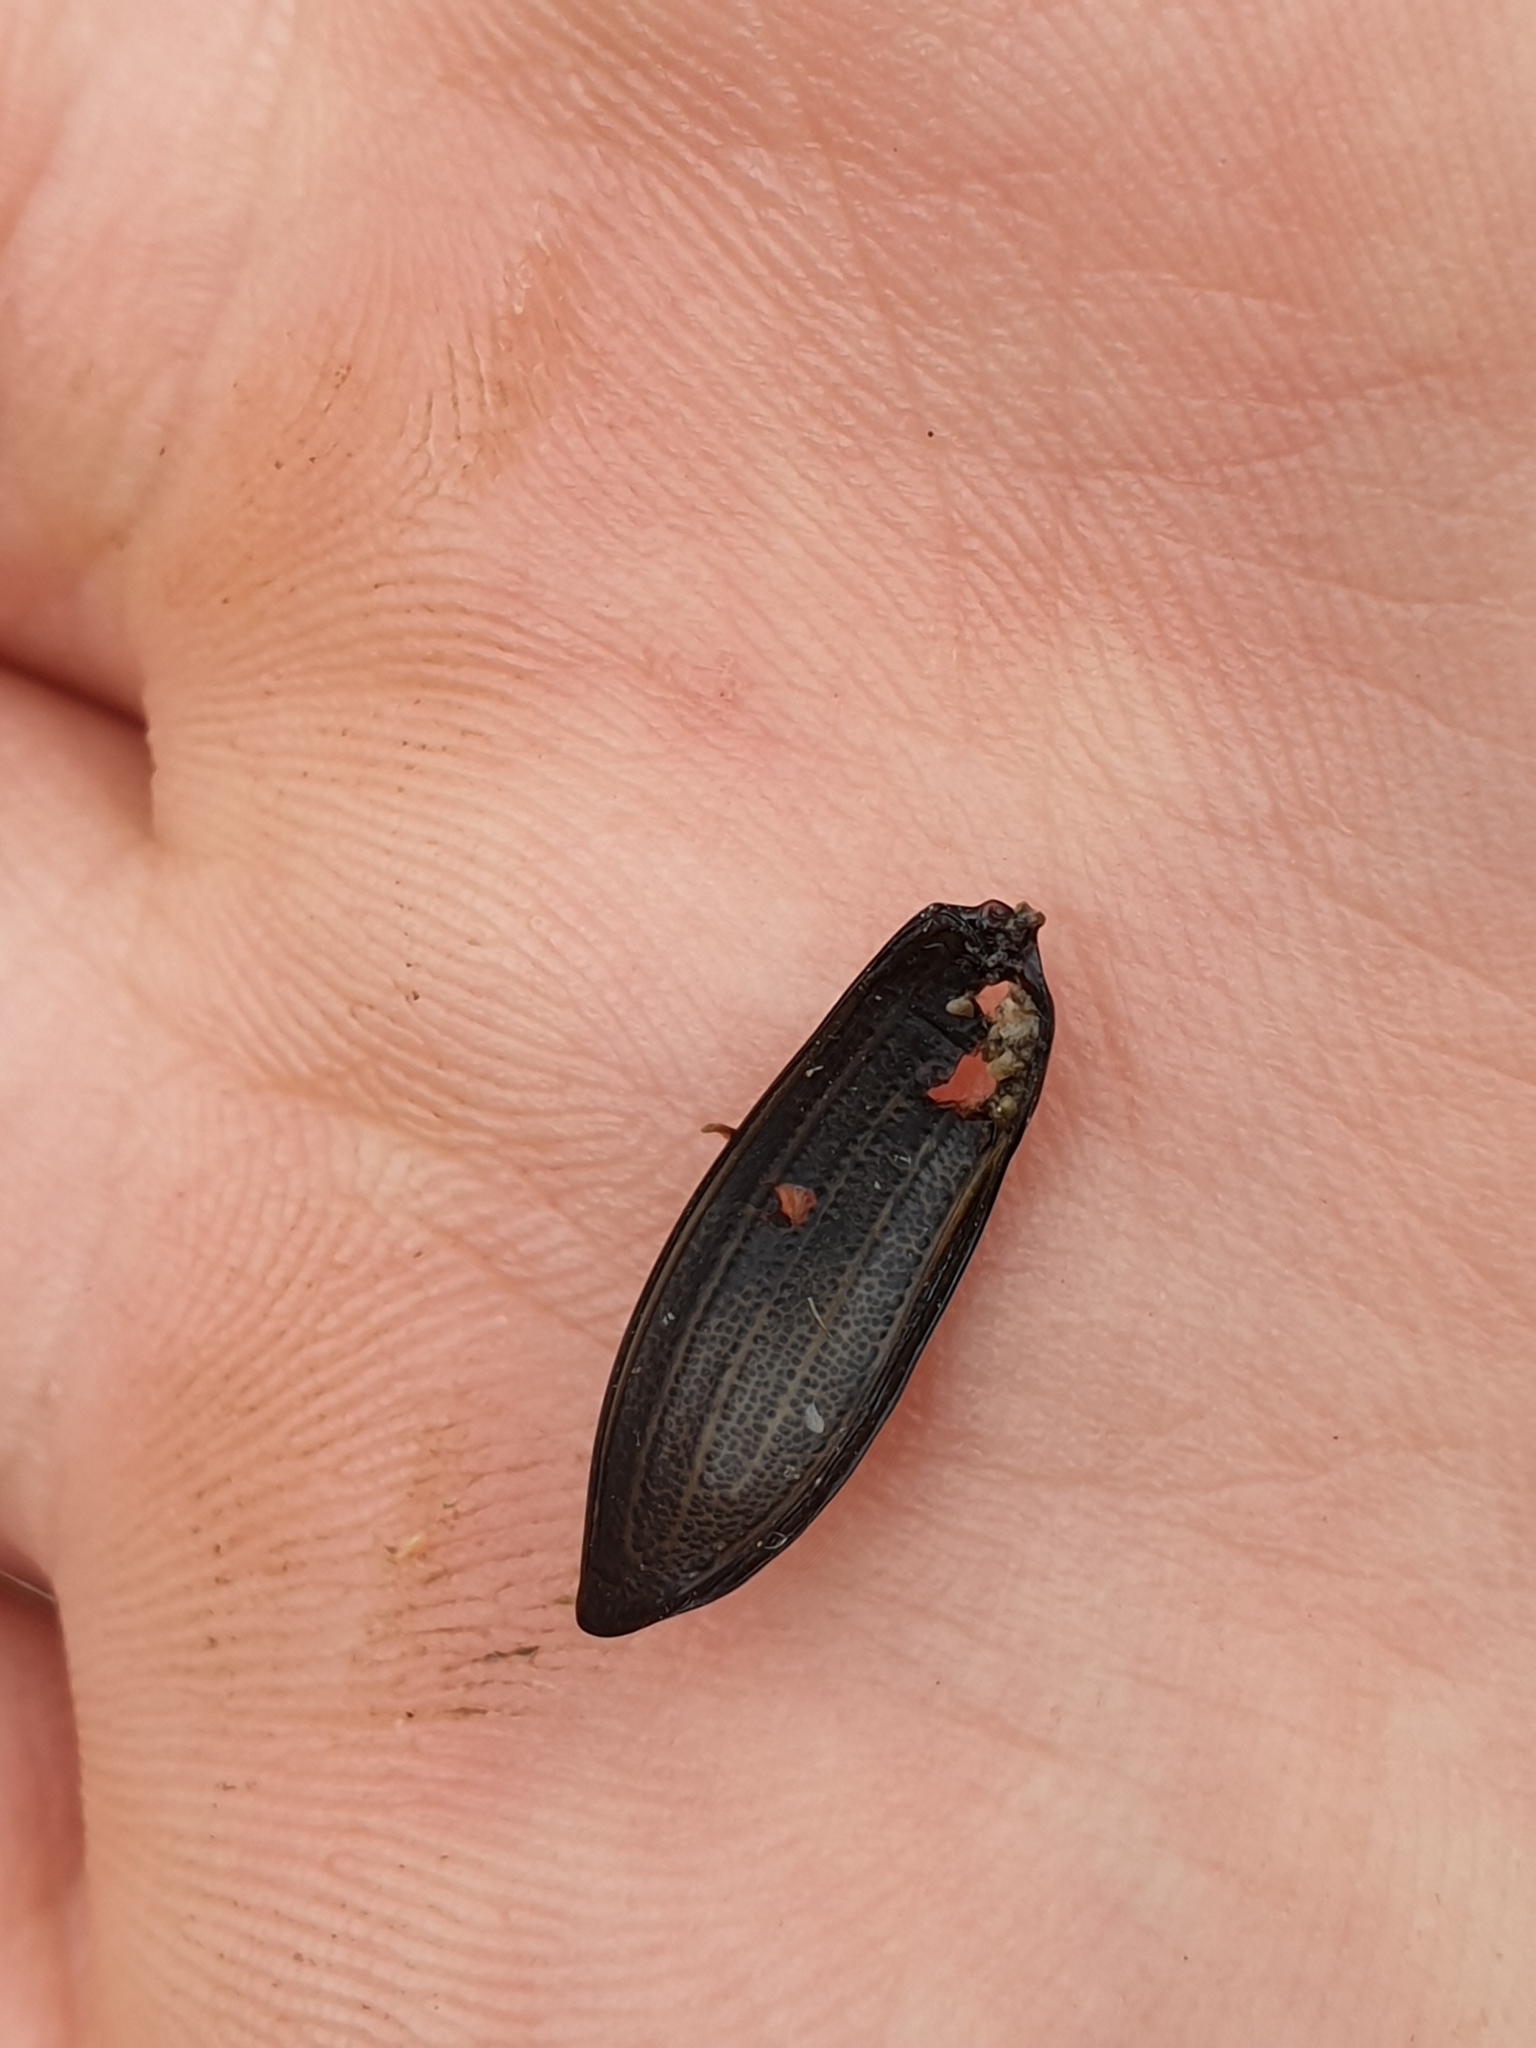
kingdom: Animalia
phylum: Arthropoda
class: Insecta
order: Coleoptera
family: Carabidae
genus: Carabus
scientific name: Carabus auronitens
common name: Carabus auronitens
